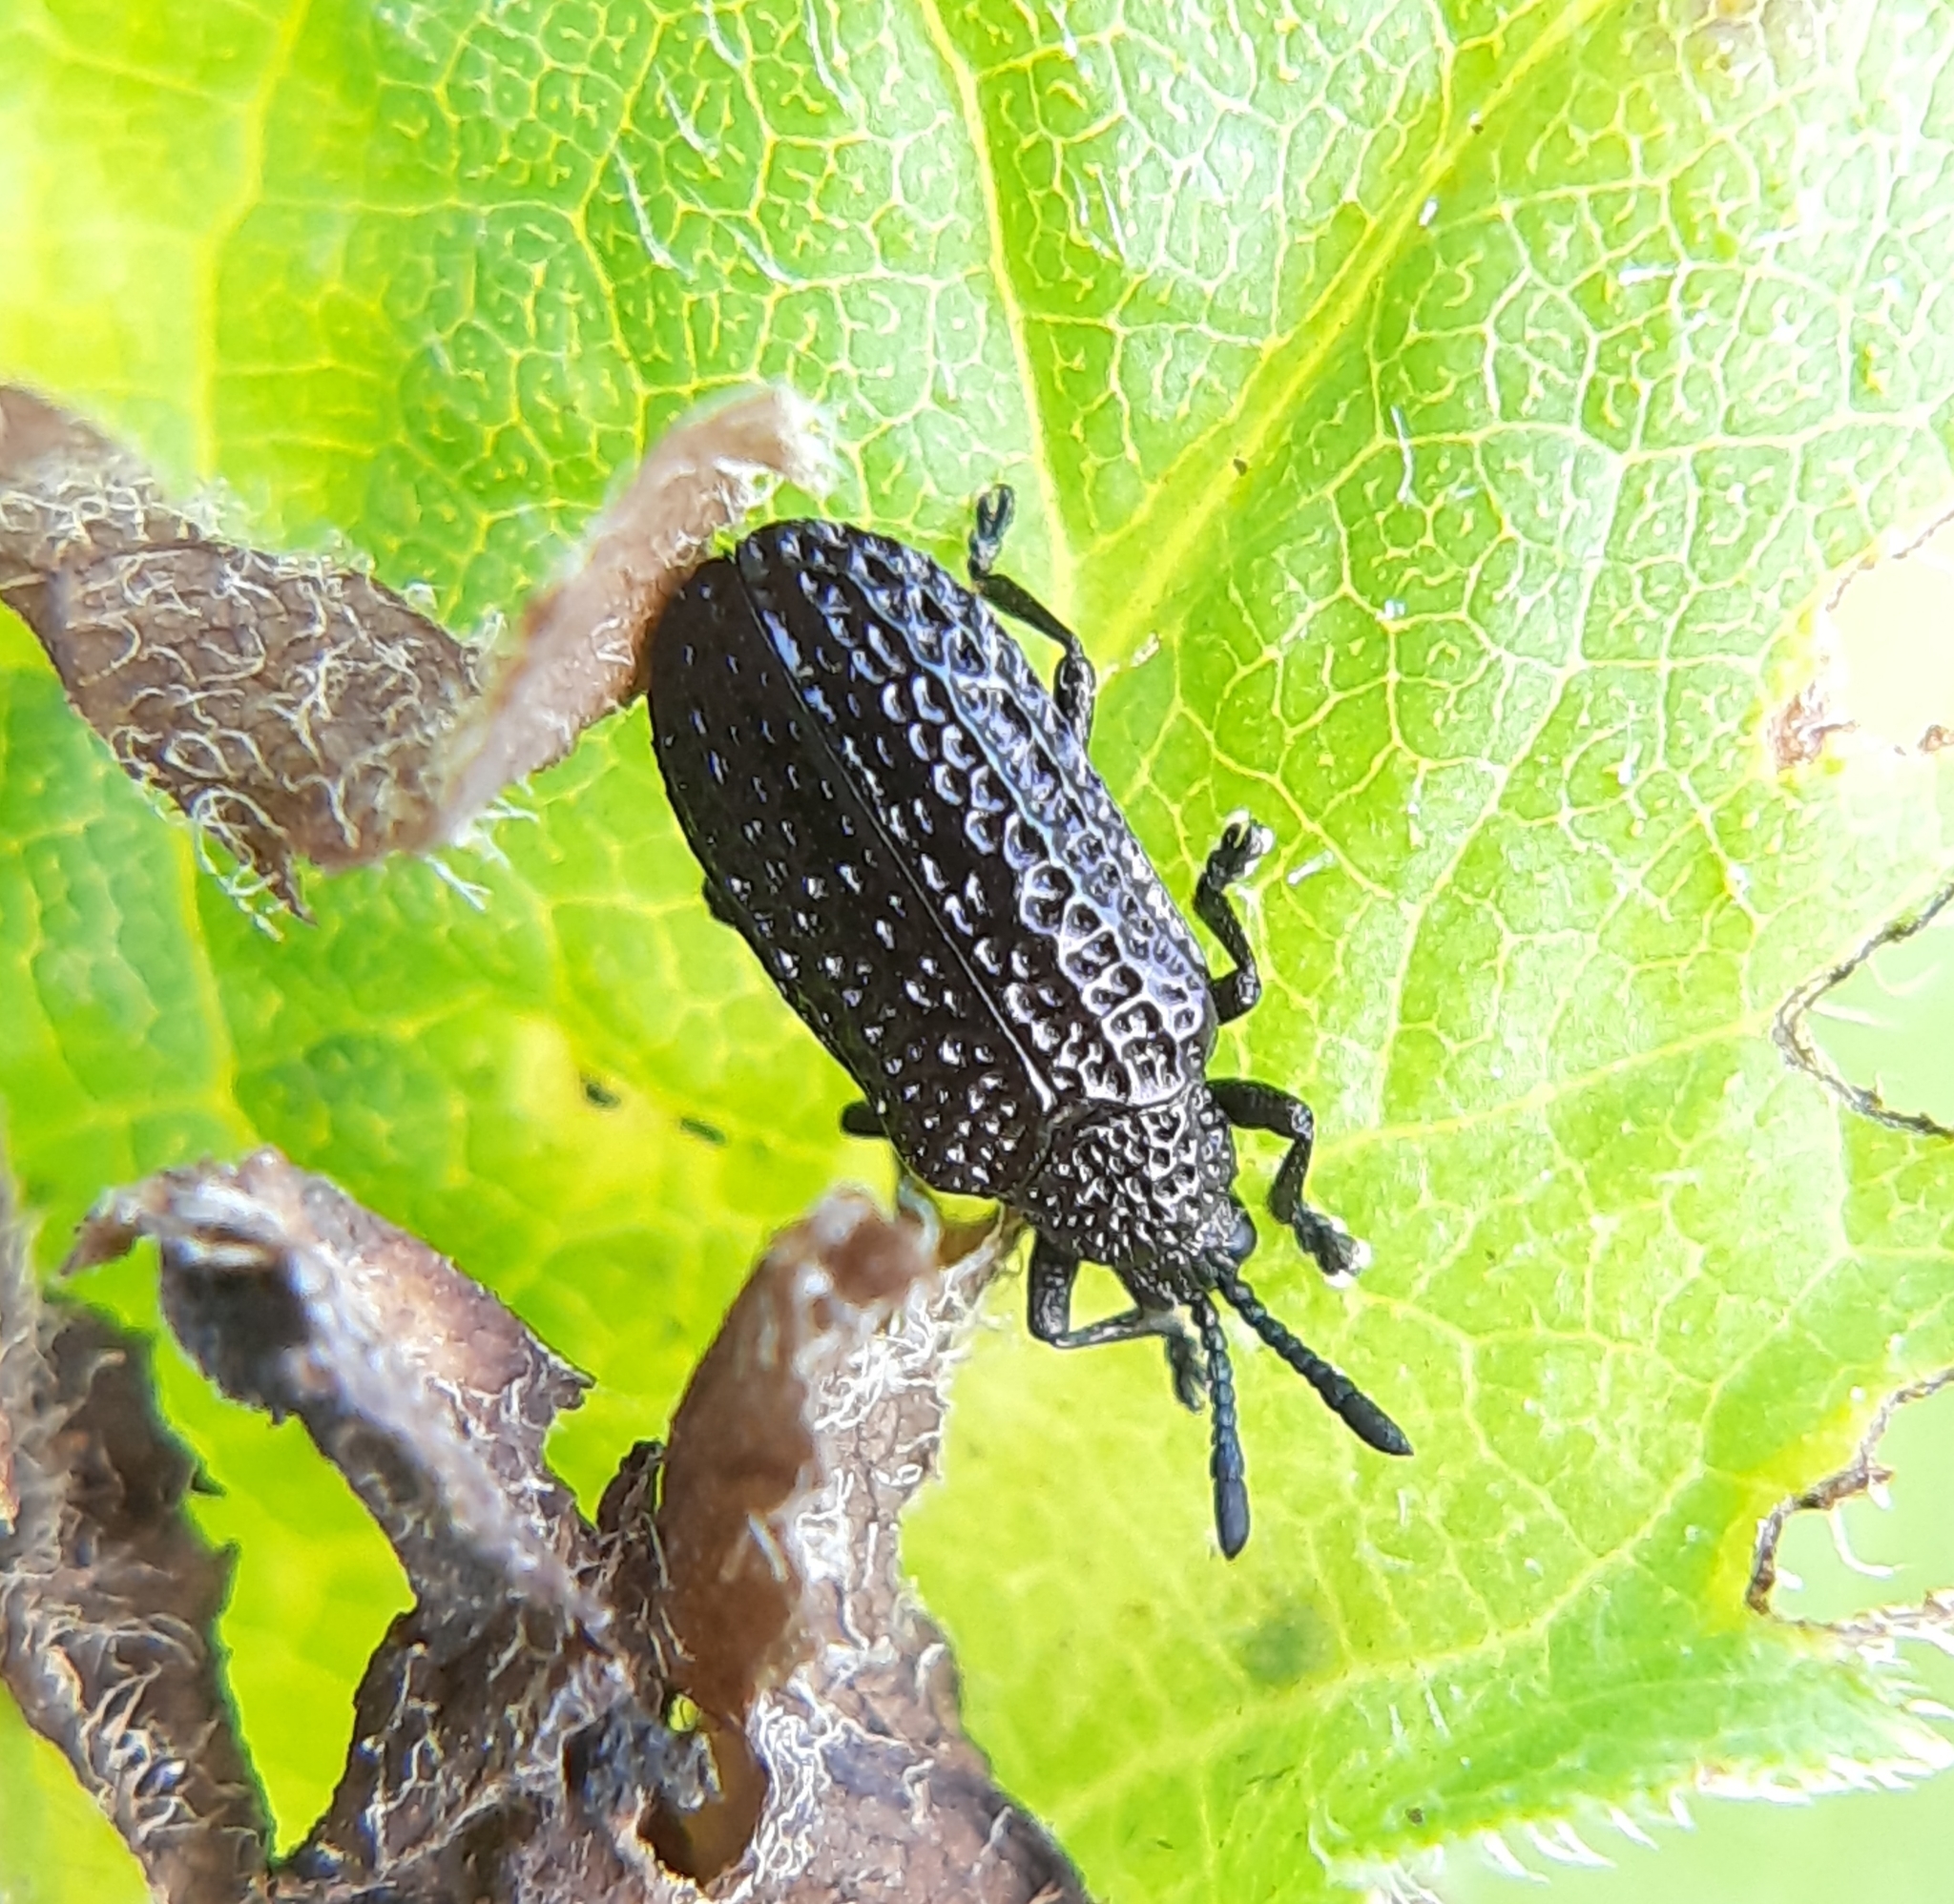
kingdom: Animalia
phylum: Arthropoda
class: Insecta
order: Coleoptera
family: Chrysomelidae
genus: Microrhopala
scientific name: Microrhopala excavata
